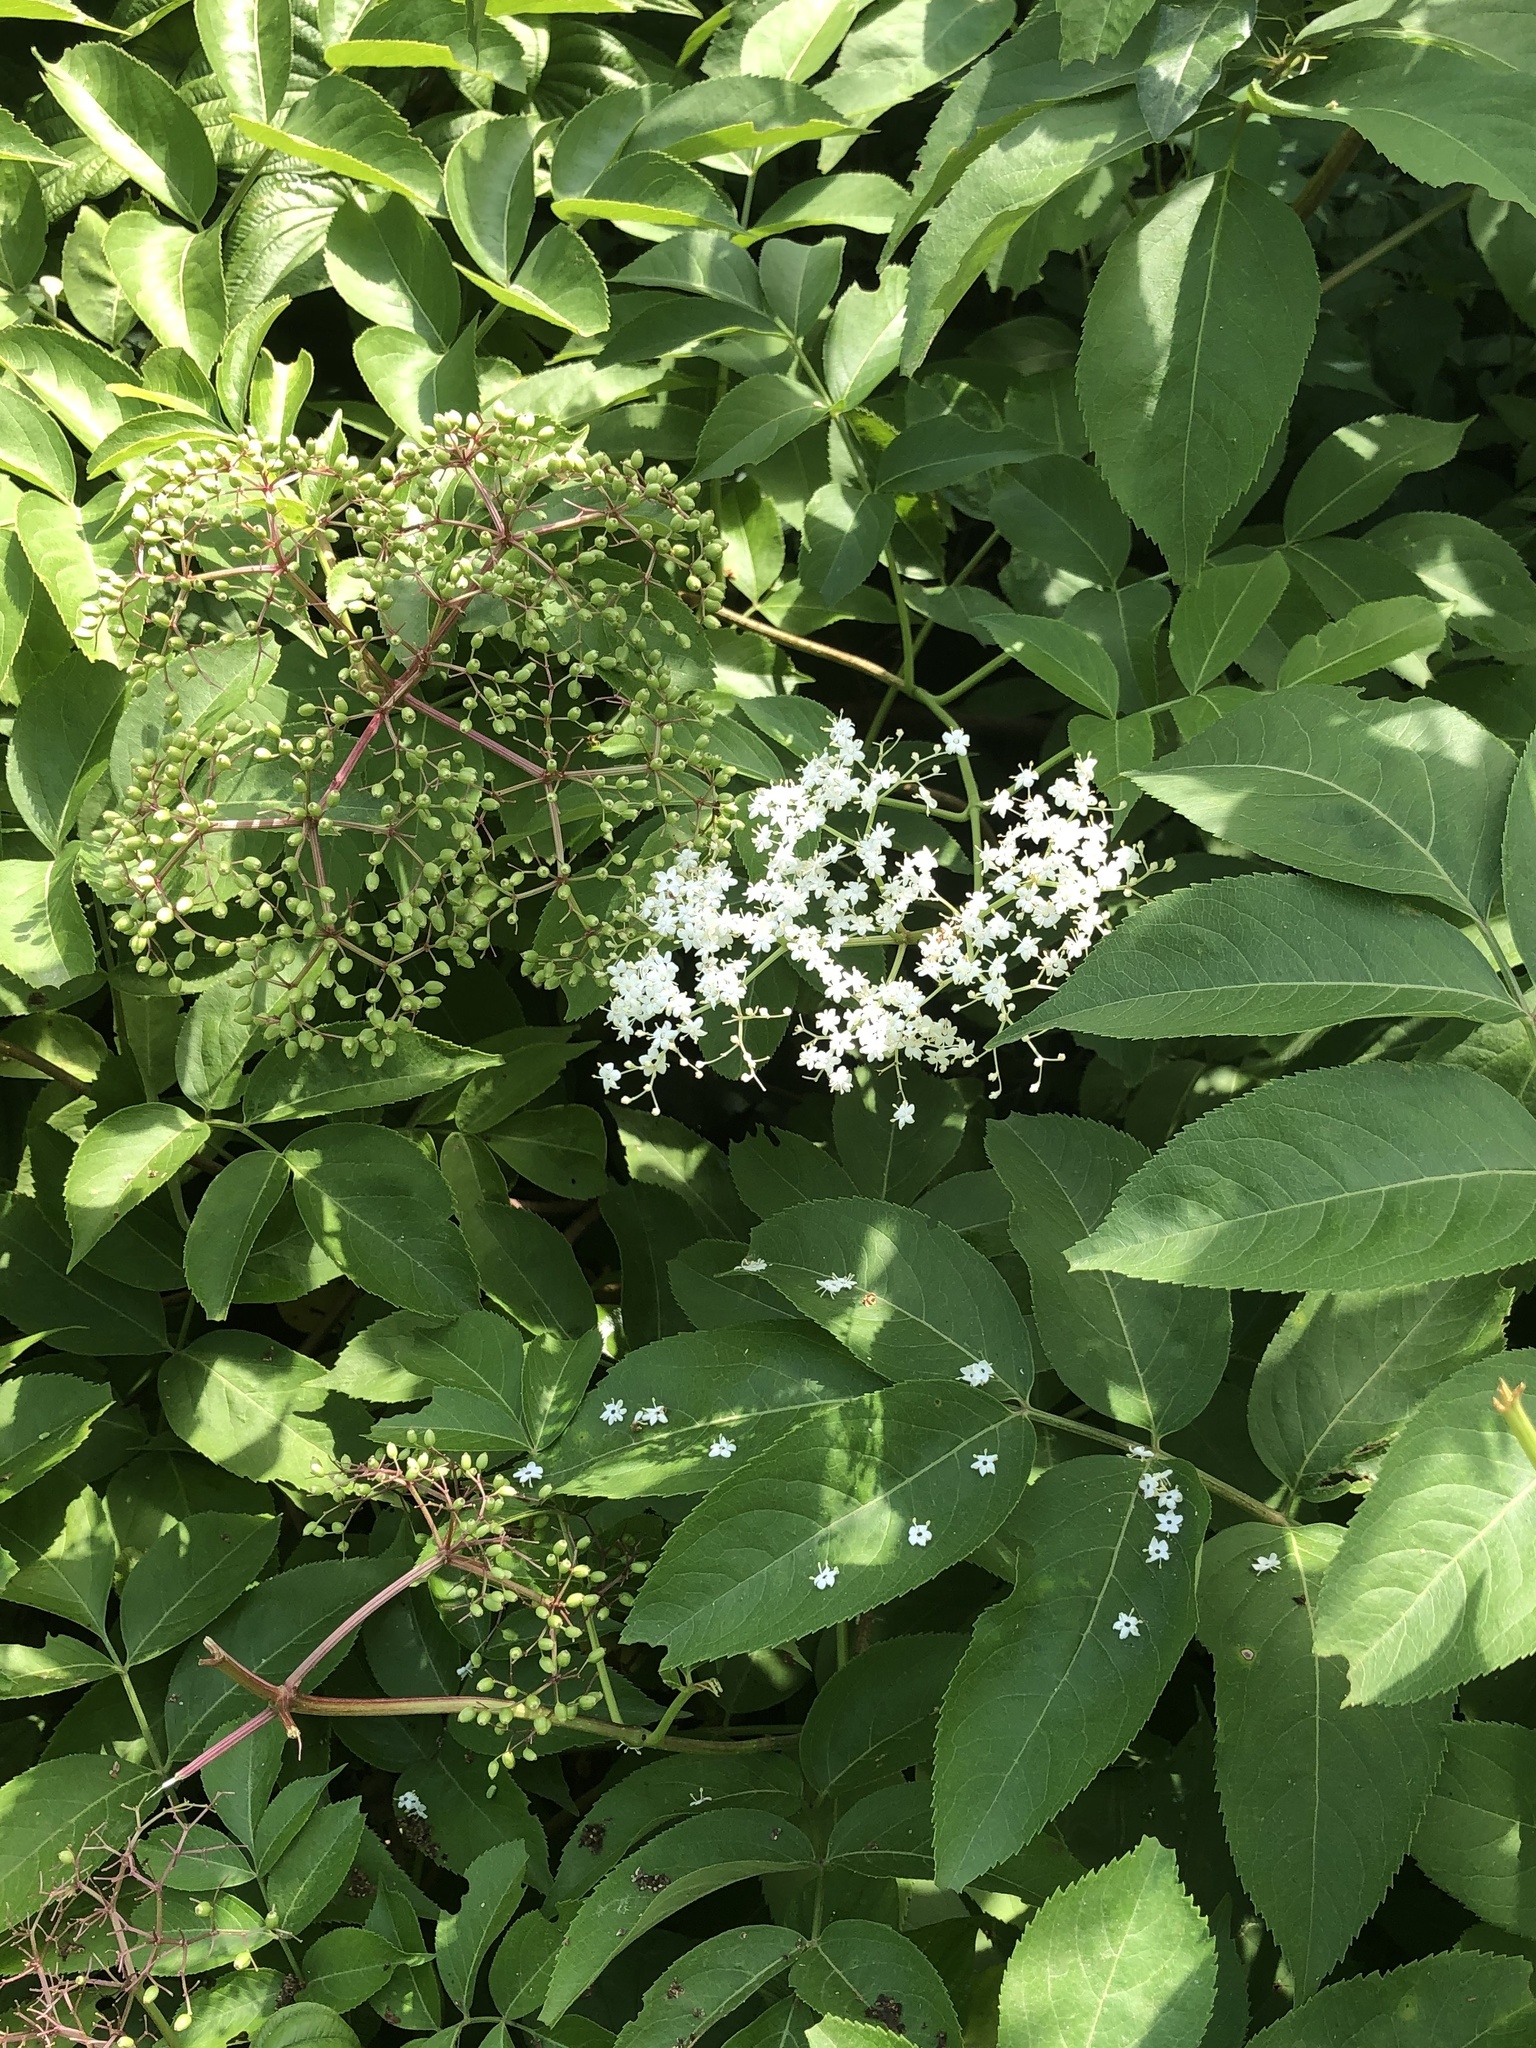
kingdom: Plantae
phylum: Tracheophyta
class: Magnoliopsida
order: Dipsacales
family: Viburnaceae
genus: Sambucus
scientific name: Sambucus canadensis
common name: American elder
